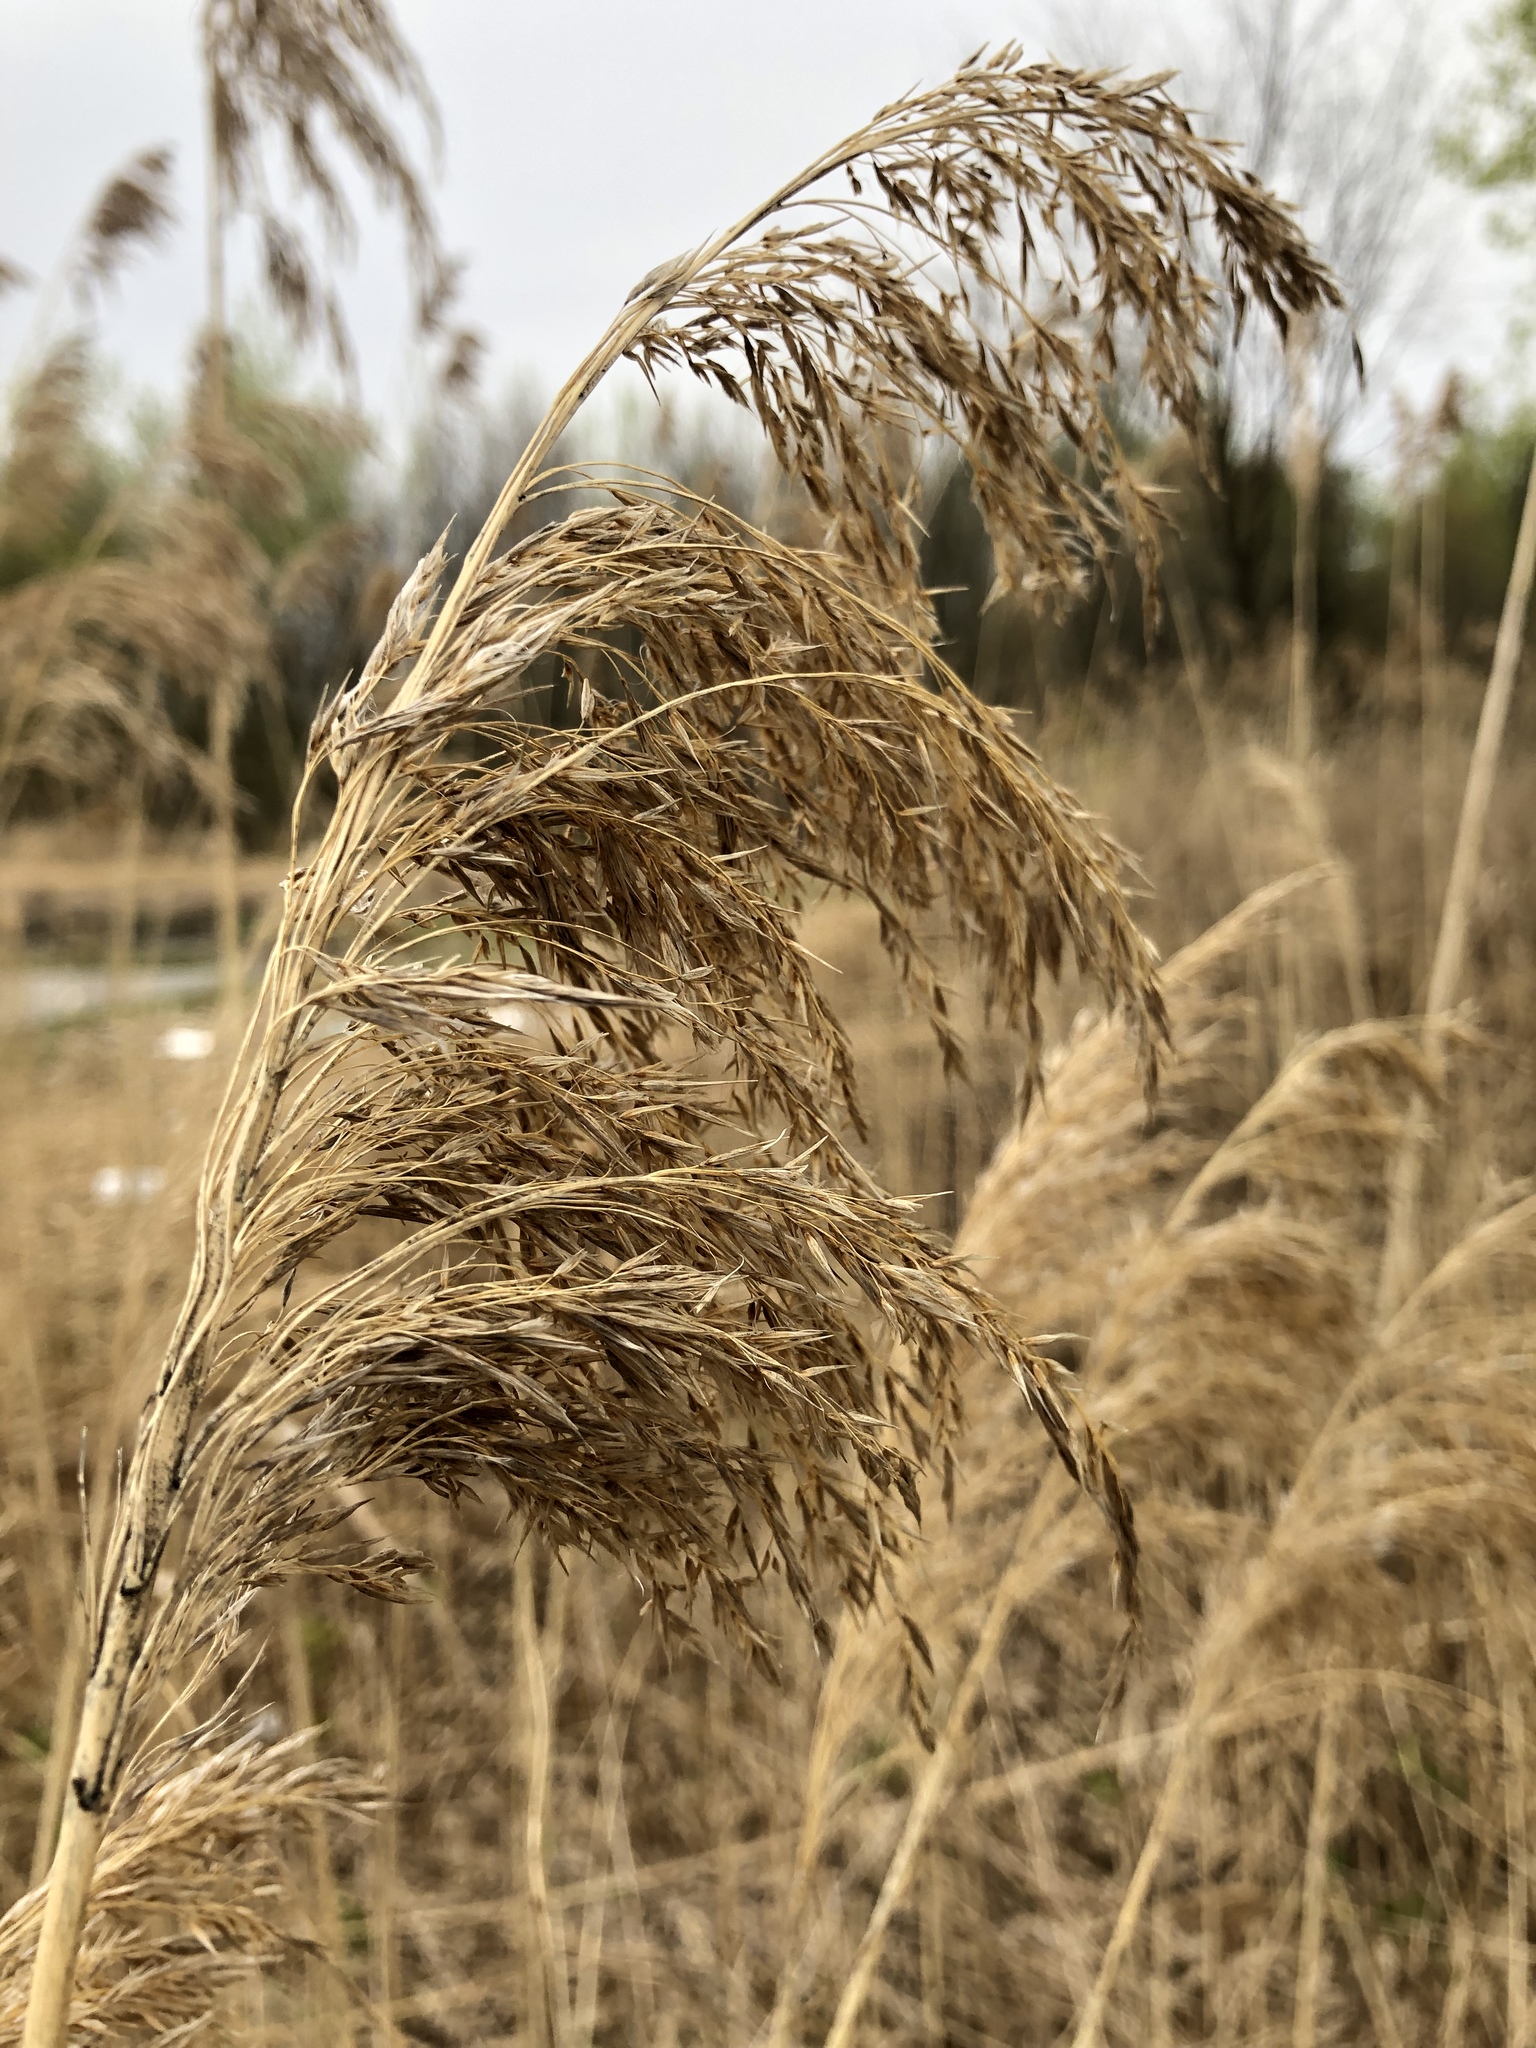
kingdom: Plantae
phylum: Tracheophyta
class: Liliopsida
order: Poales
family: Poaceae
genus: Phragmites
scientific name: Phragmites australis
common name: Common reed
